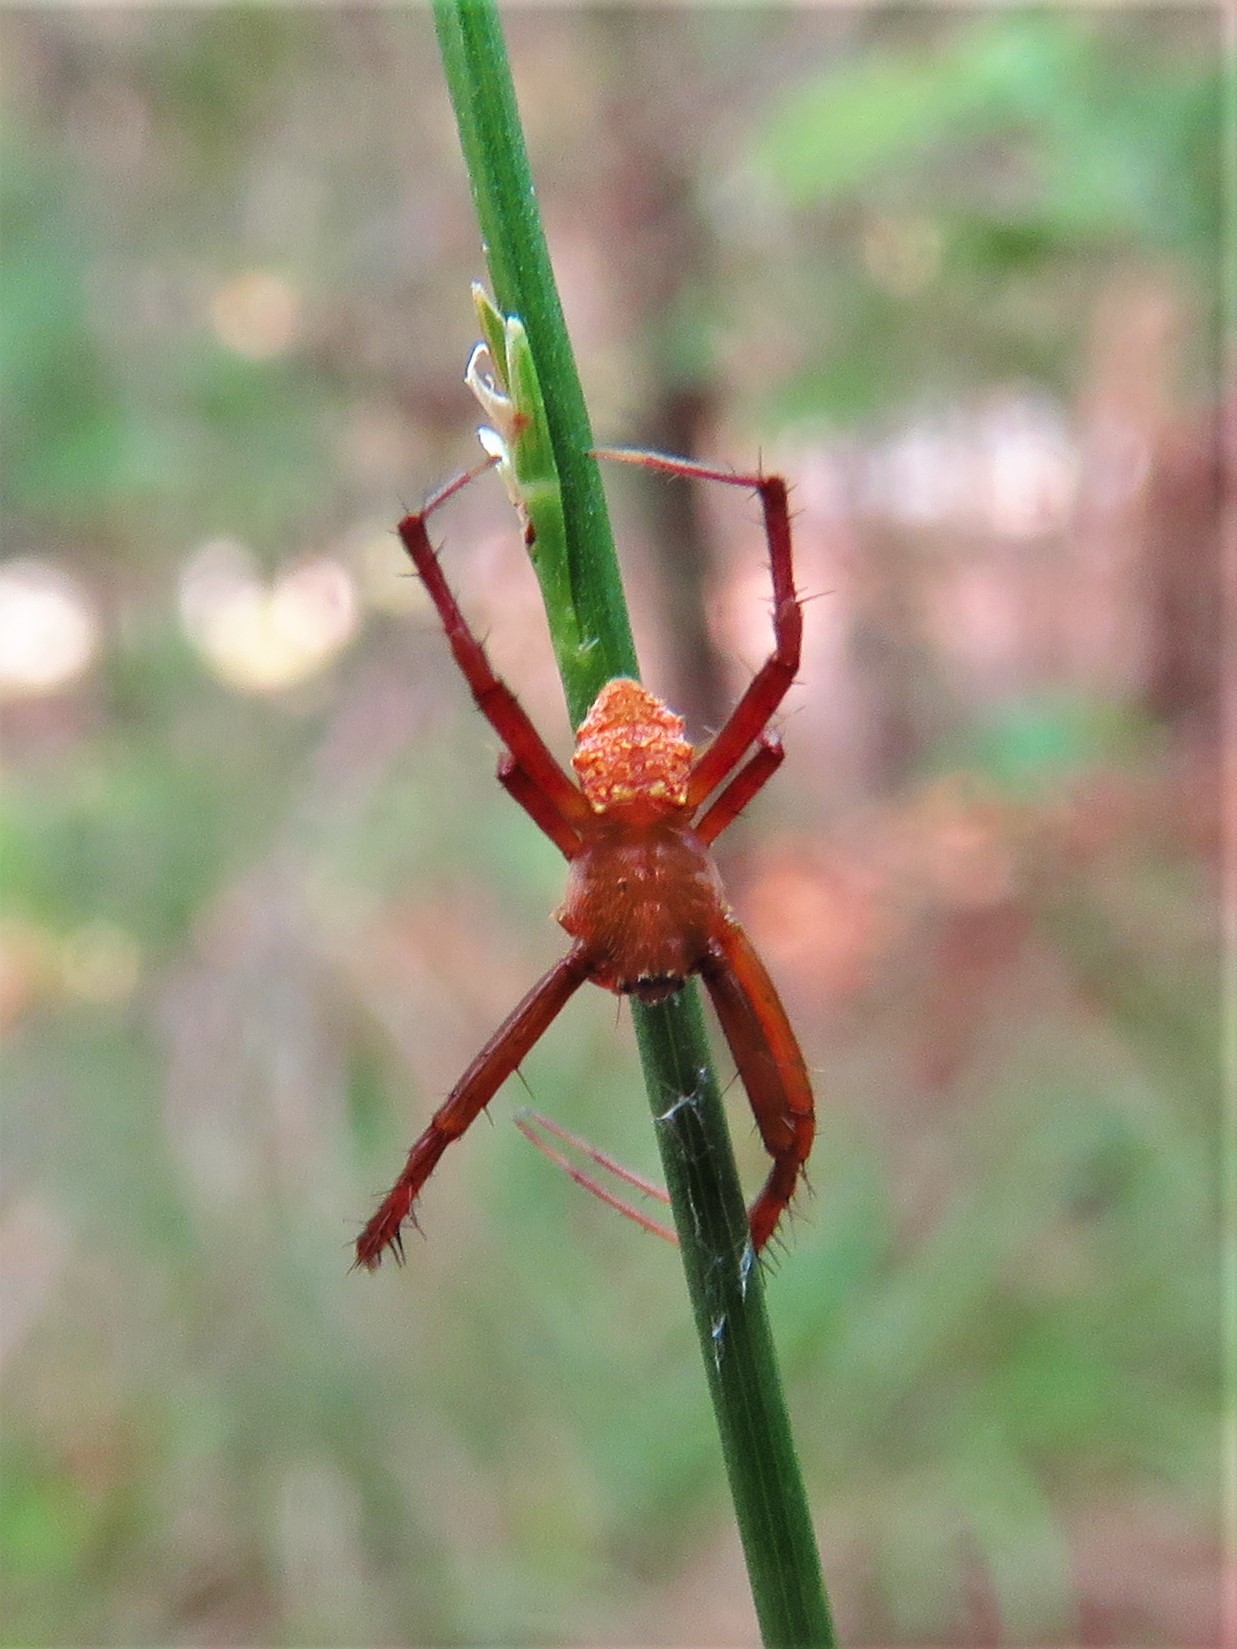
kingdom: Animalia
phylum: Arthropoda
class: Arachnida
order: Araneae
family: Araneidae
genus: Gea
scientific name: Gea heptagon
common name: Orb weavers
